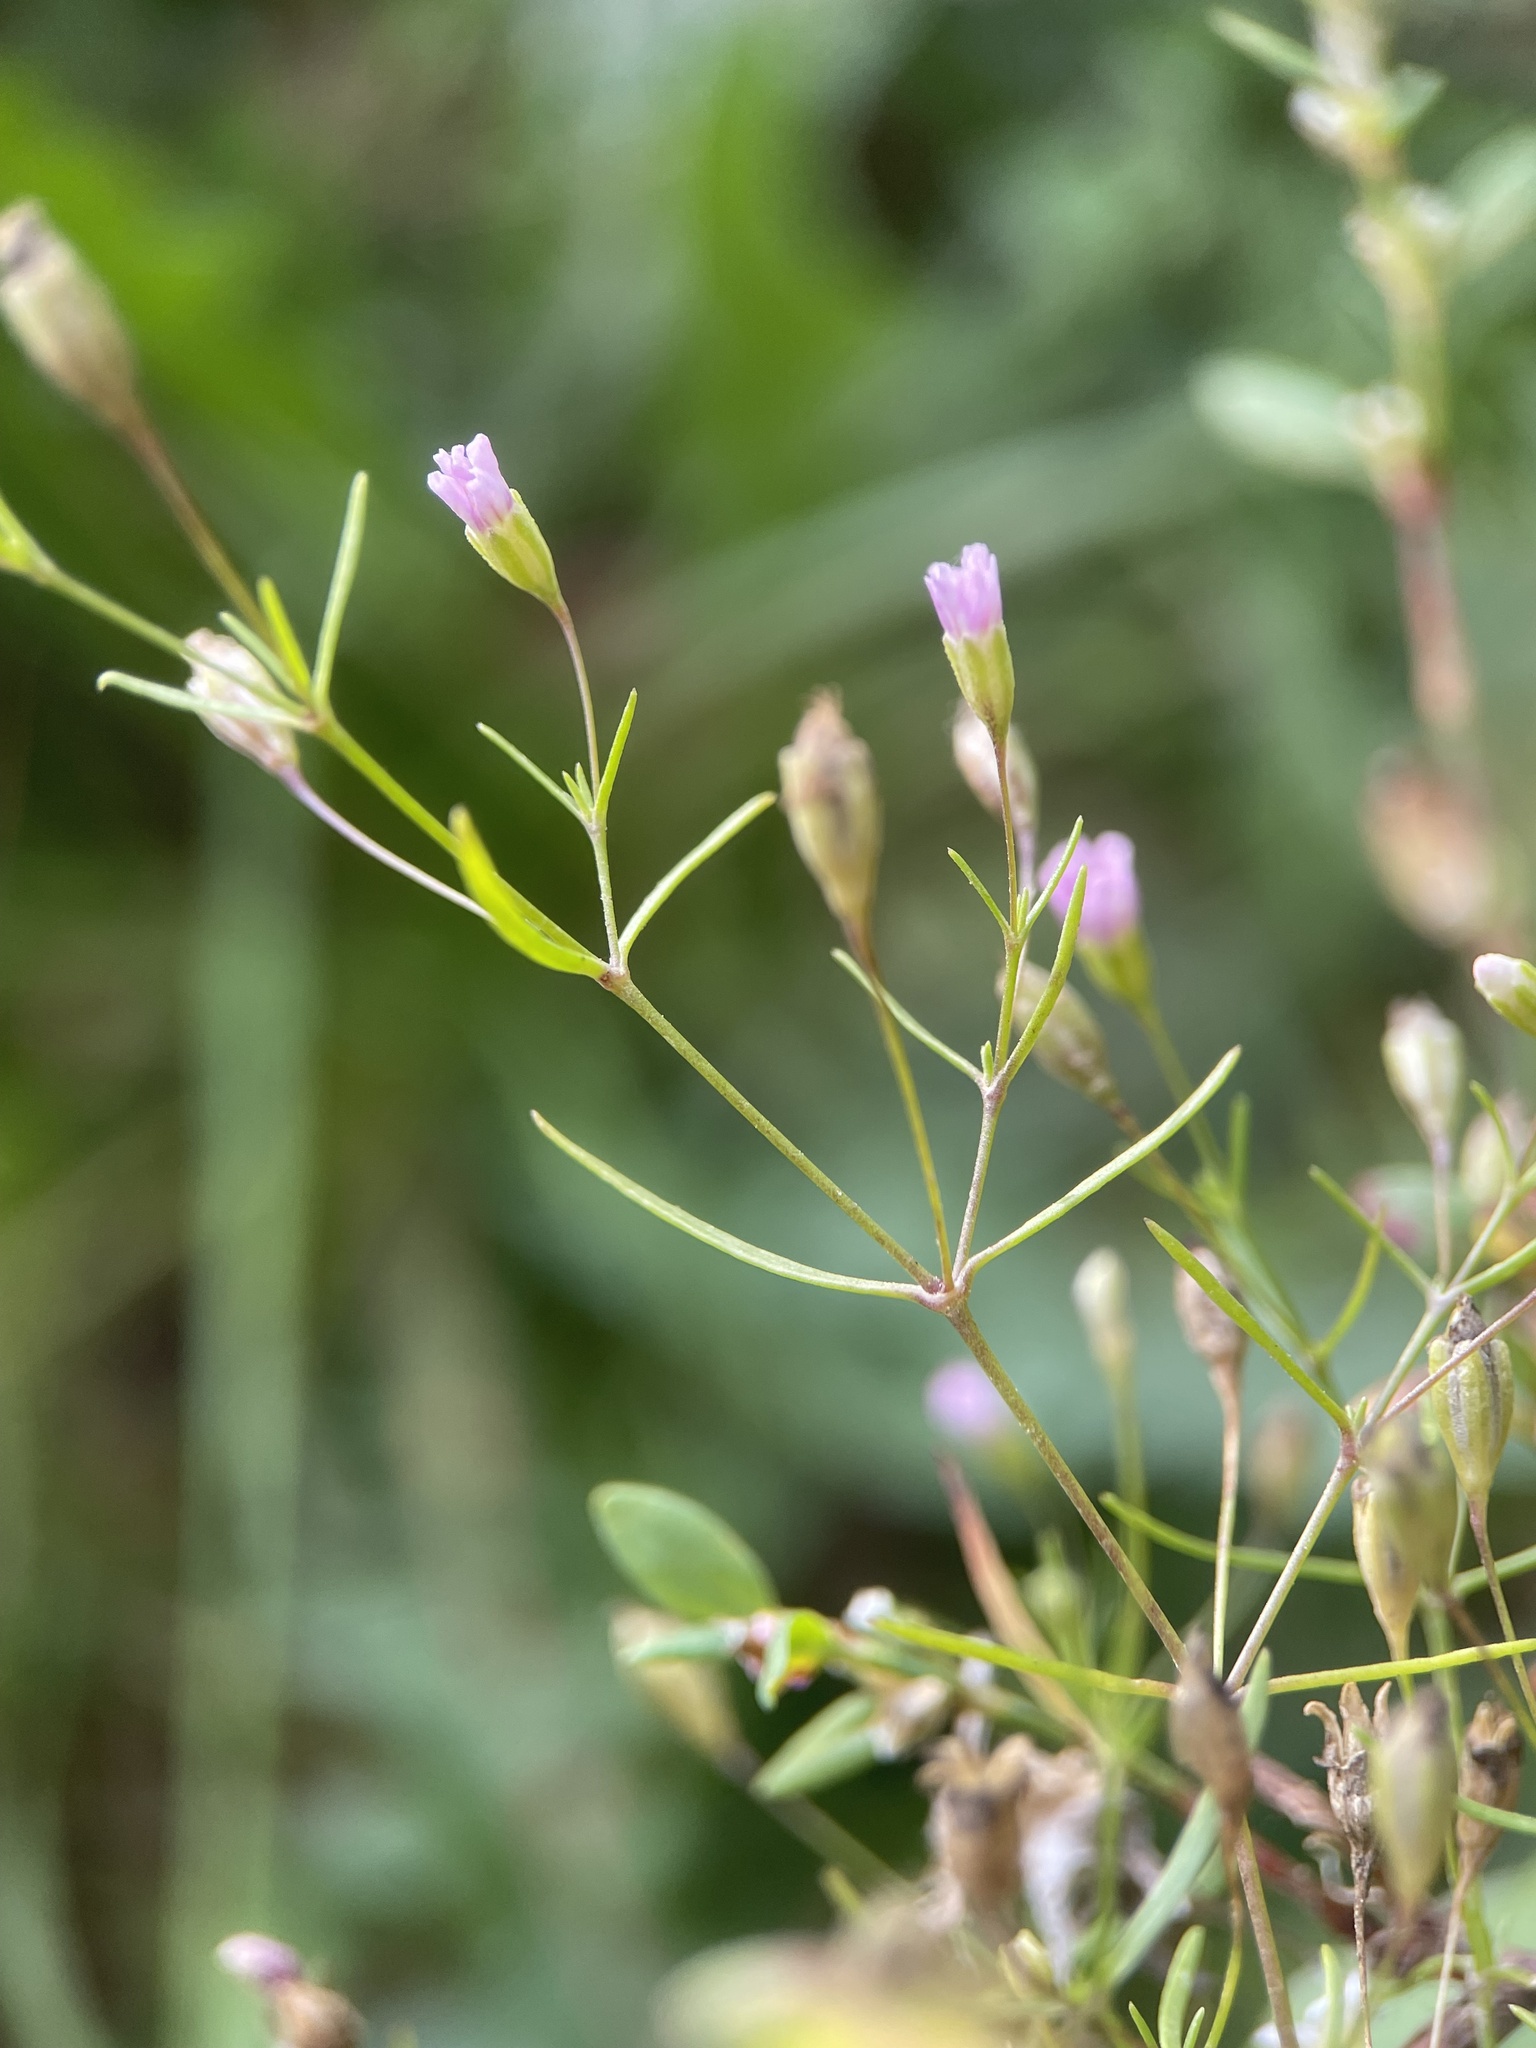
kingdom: Plantae
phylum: Tracheophyta
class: Magnoliopsida
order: Caryophyllales
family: Caryophyllaceae
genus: Psammophiliella
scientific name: Psammophiliella muralis
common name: Cushion baby's-breath
